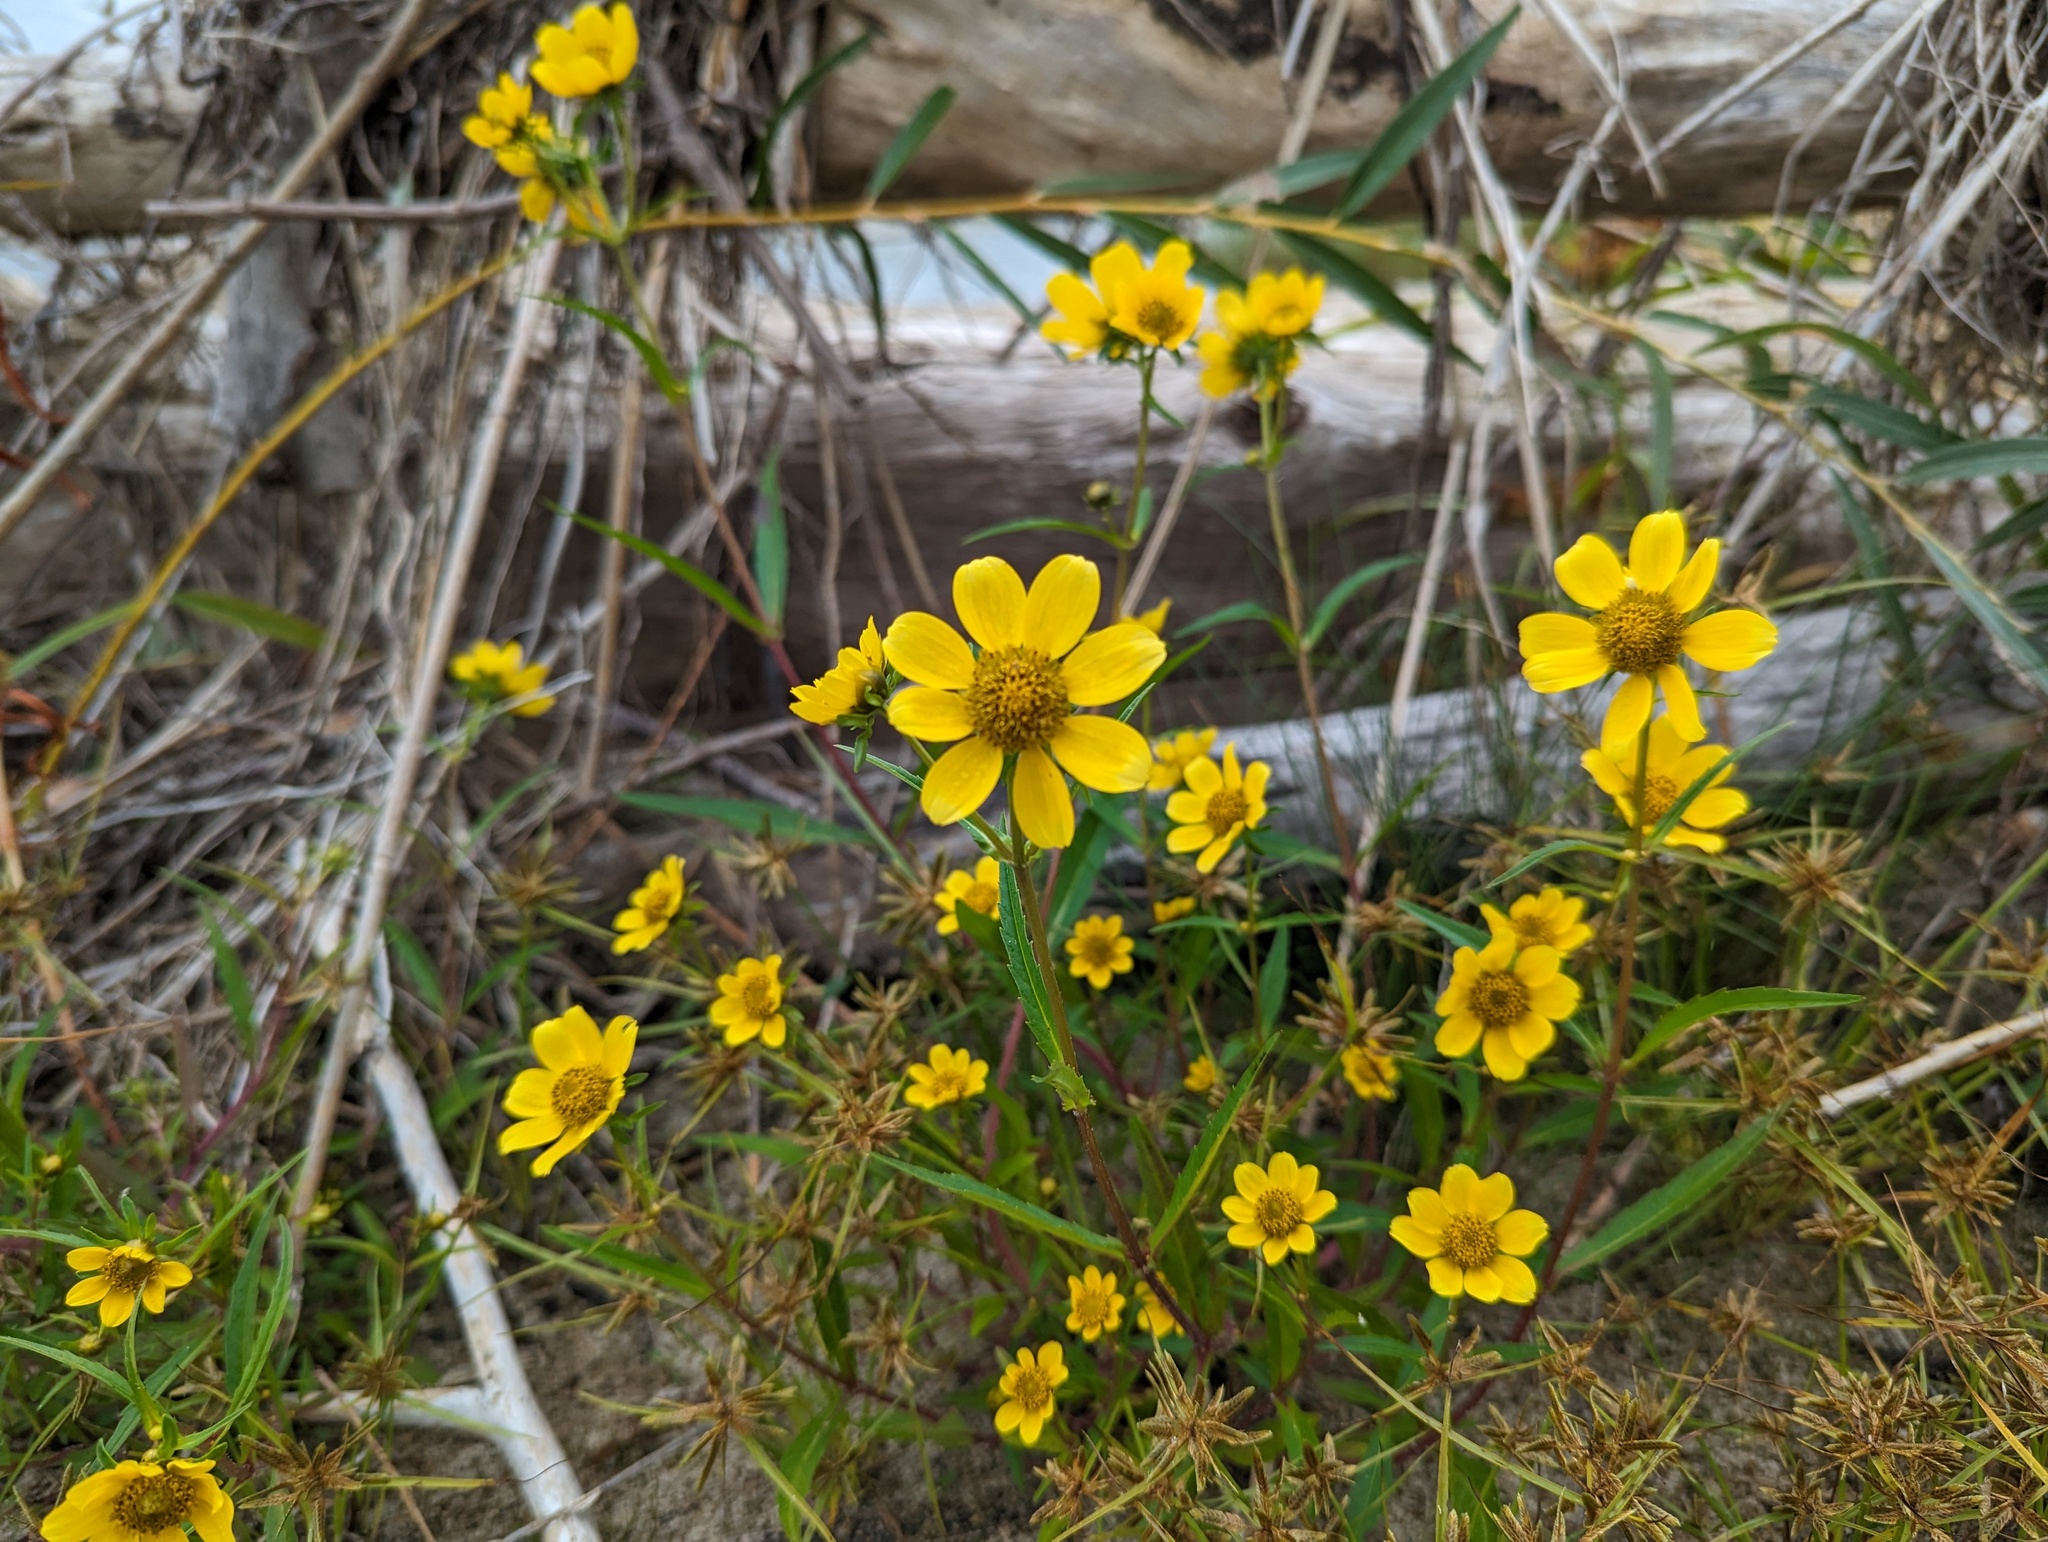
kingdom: Plantae
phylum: Tracheophyta
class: Magnoliopsida
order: Asterales
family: Asteraceae
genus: Bidens
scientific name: Bidens aristosa
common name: Western tickseed
